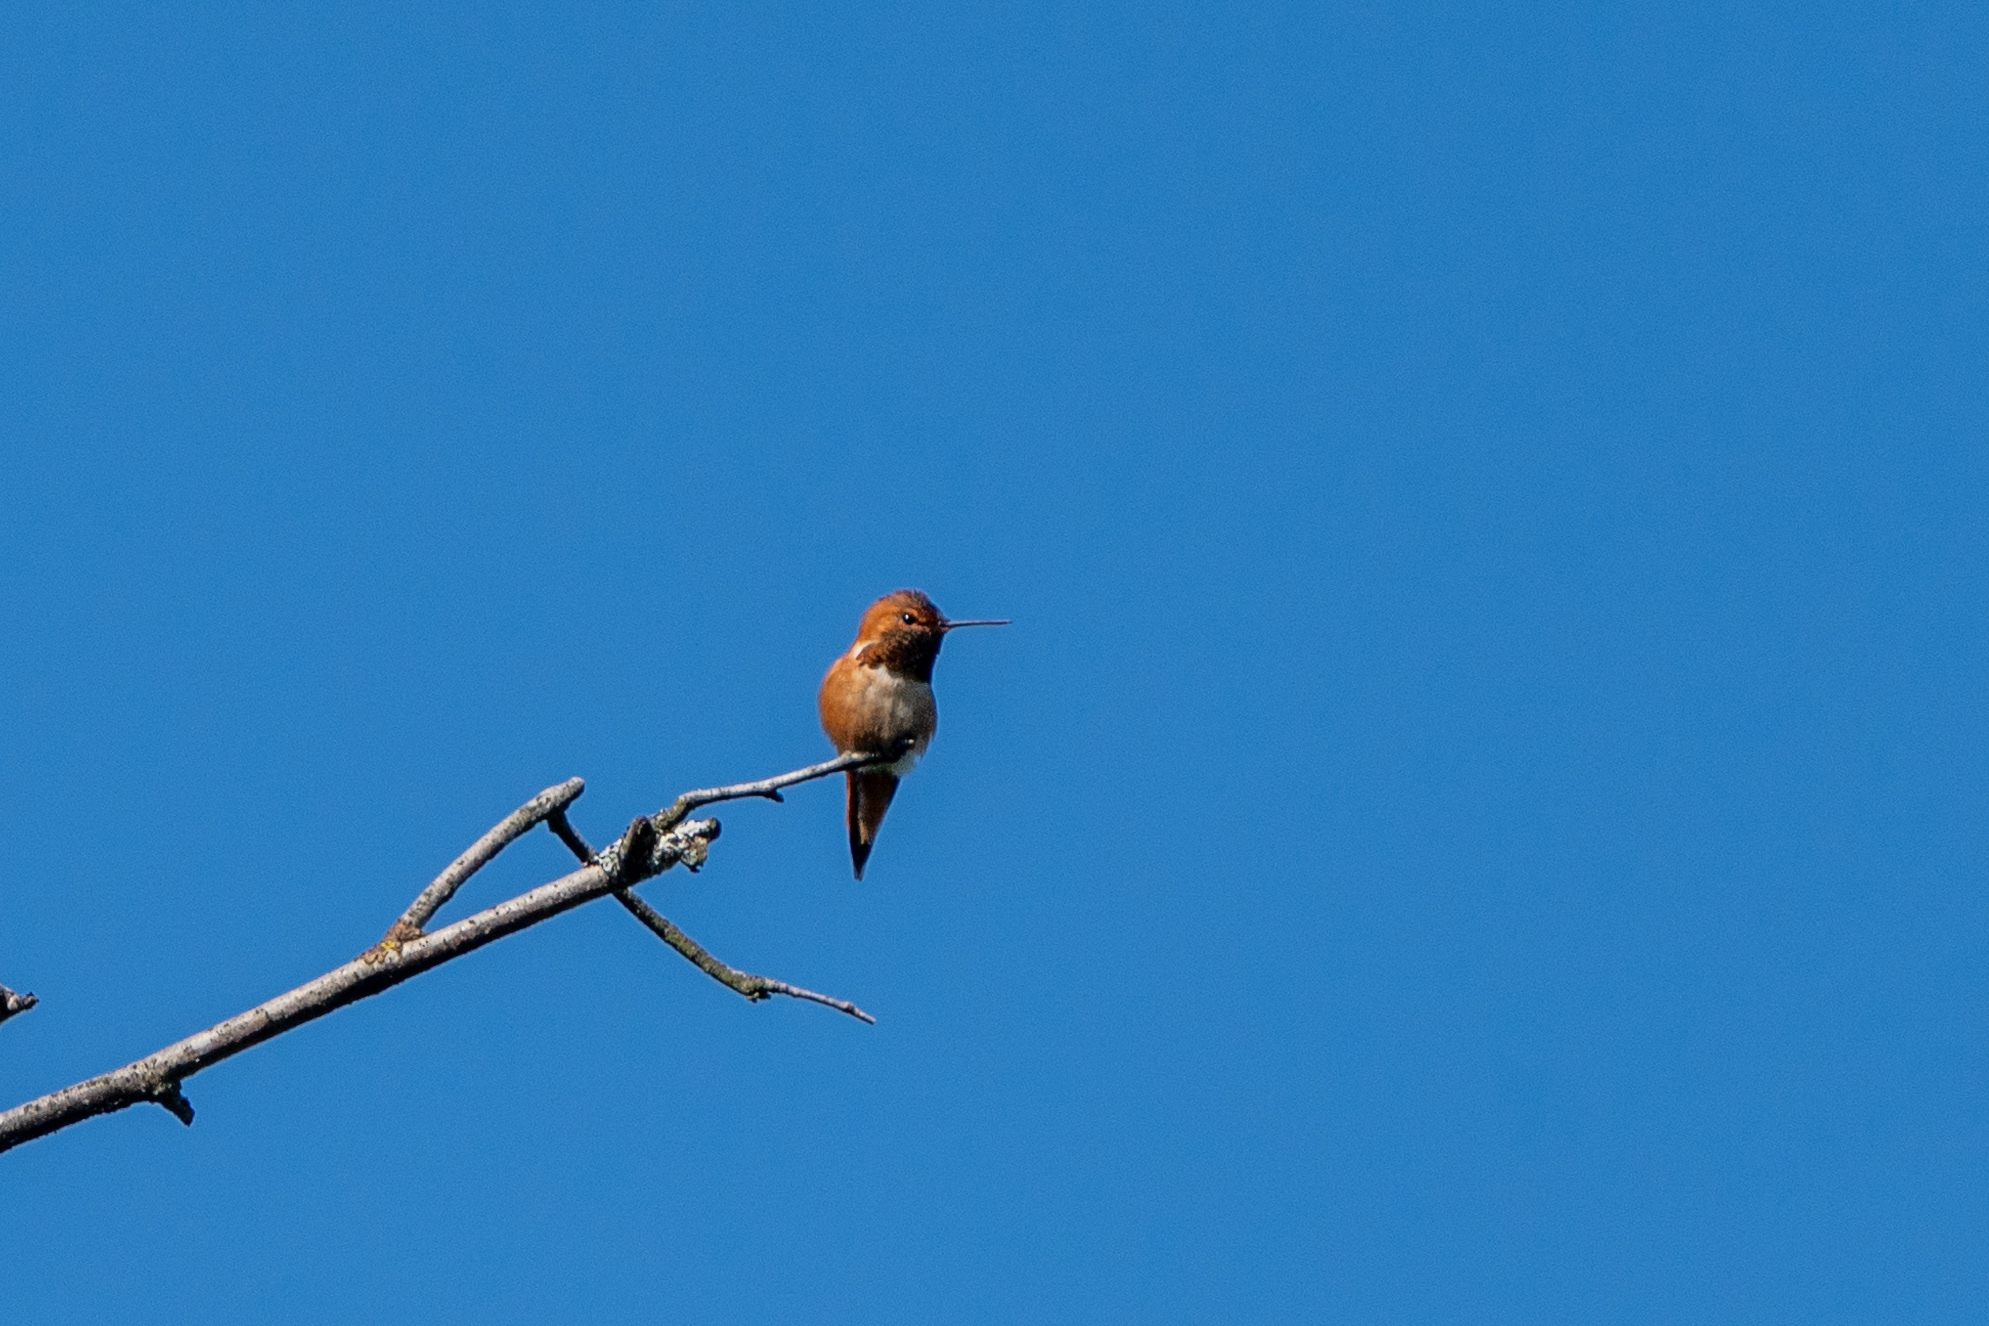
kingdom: Animalia
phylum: Chordata
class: Aves
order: Apodiformes
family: Trochilidae
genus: Selasphorus
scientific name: Selasphorus rufus
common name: Rufous hummingbird
